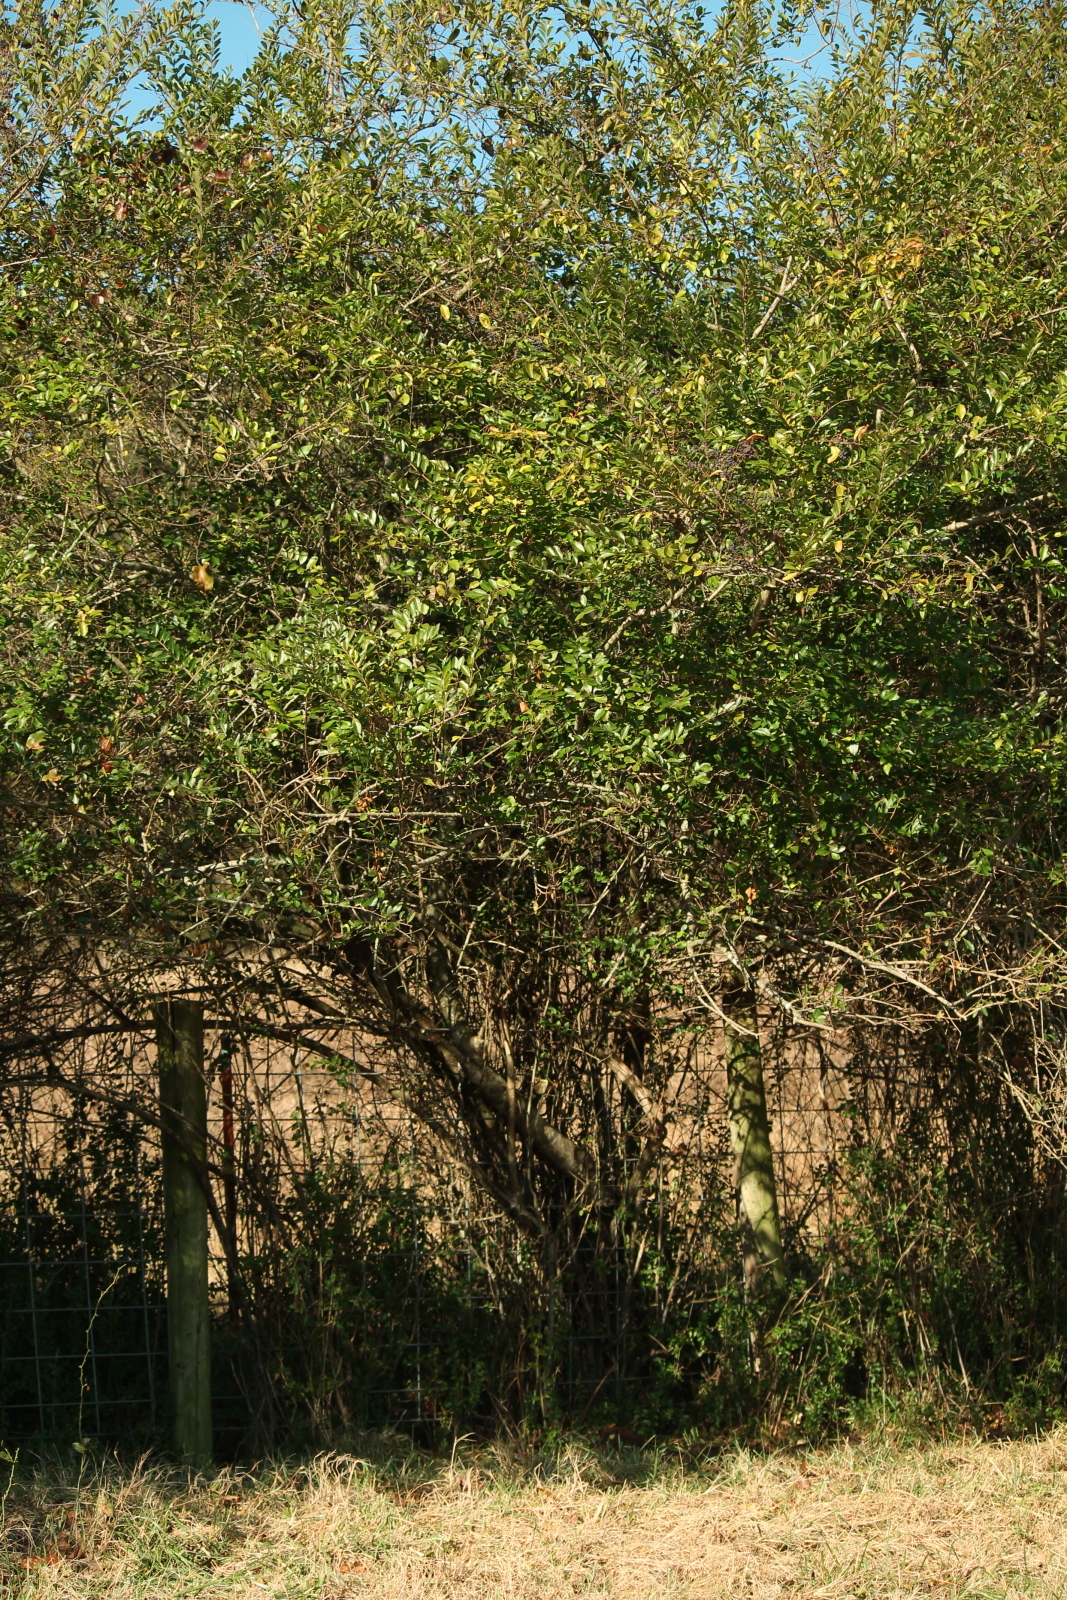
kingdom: Plantae
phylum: Tracheophyta
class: Magnoliopsida
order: Lamiales
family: Oleaceae
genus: Ligustrum
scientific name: Ligustrum sinense
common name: Chinese privet
